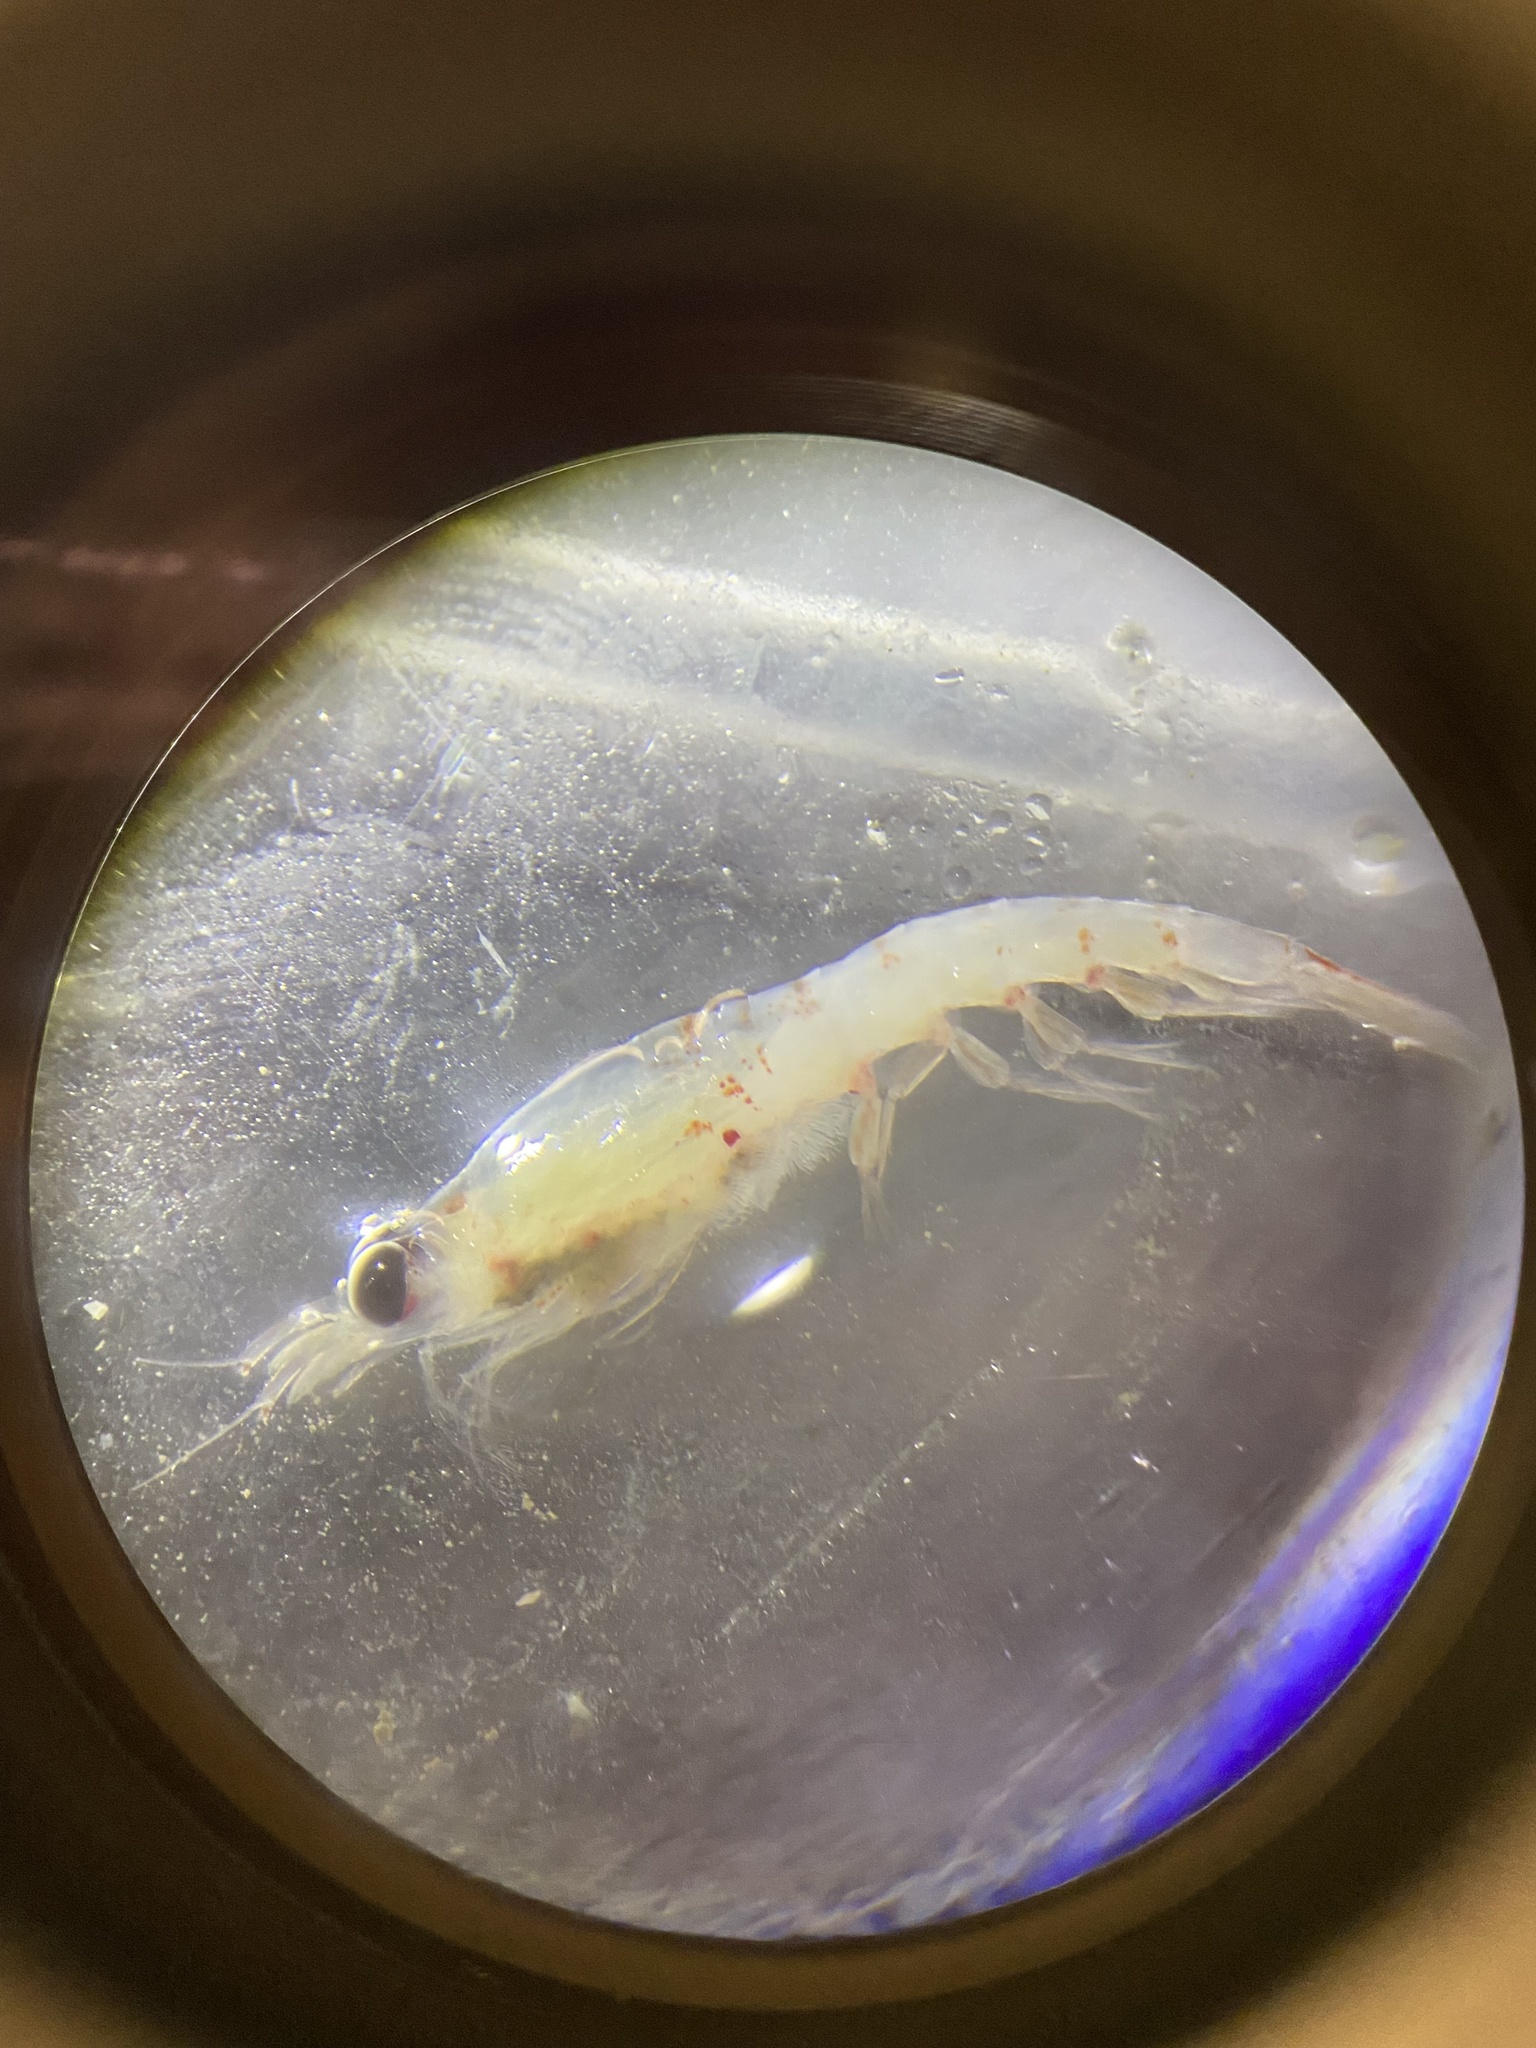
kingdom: Animalia
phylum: Arthropoda
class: Malacostraca
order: Euphausiacea
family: Euphausiidae
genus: Thysanoessa
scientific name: Thysanoessa inermis
